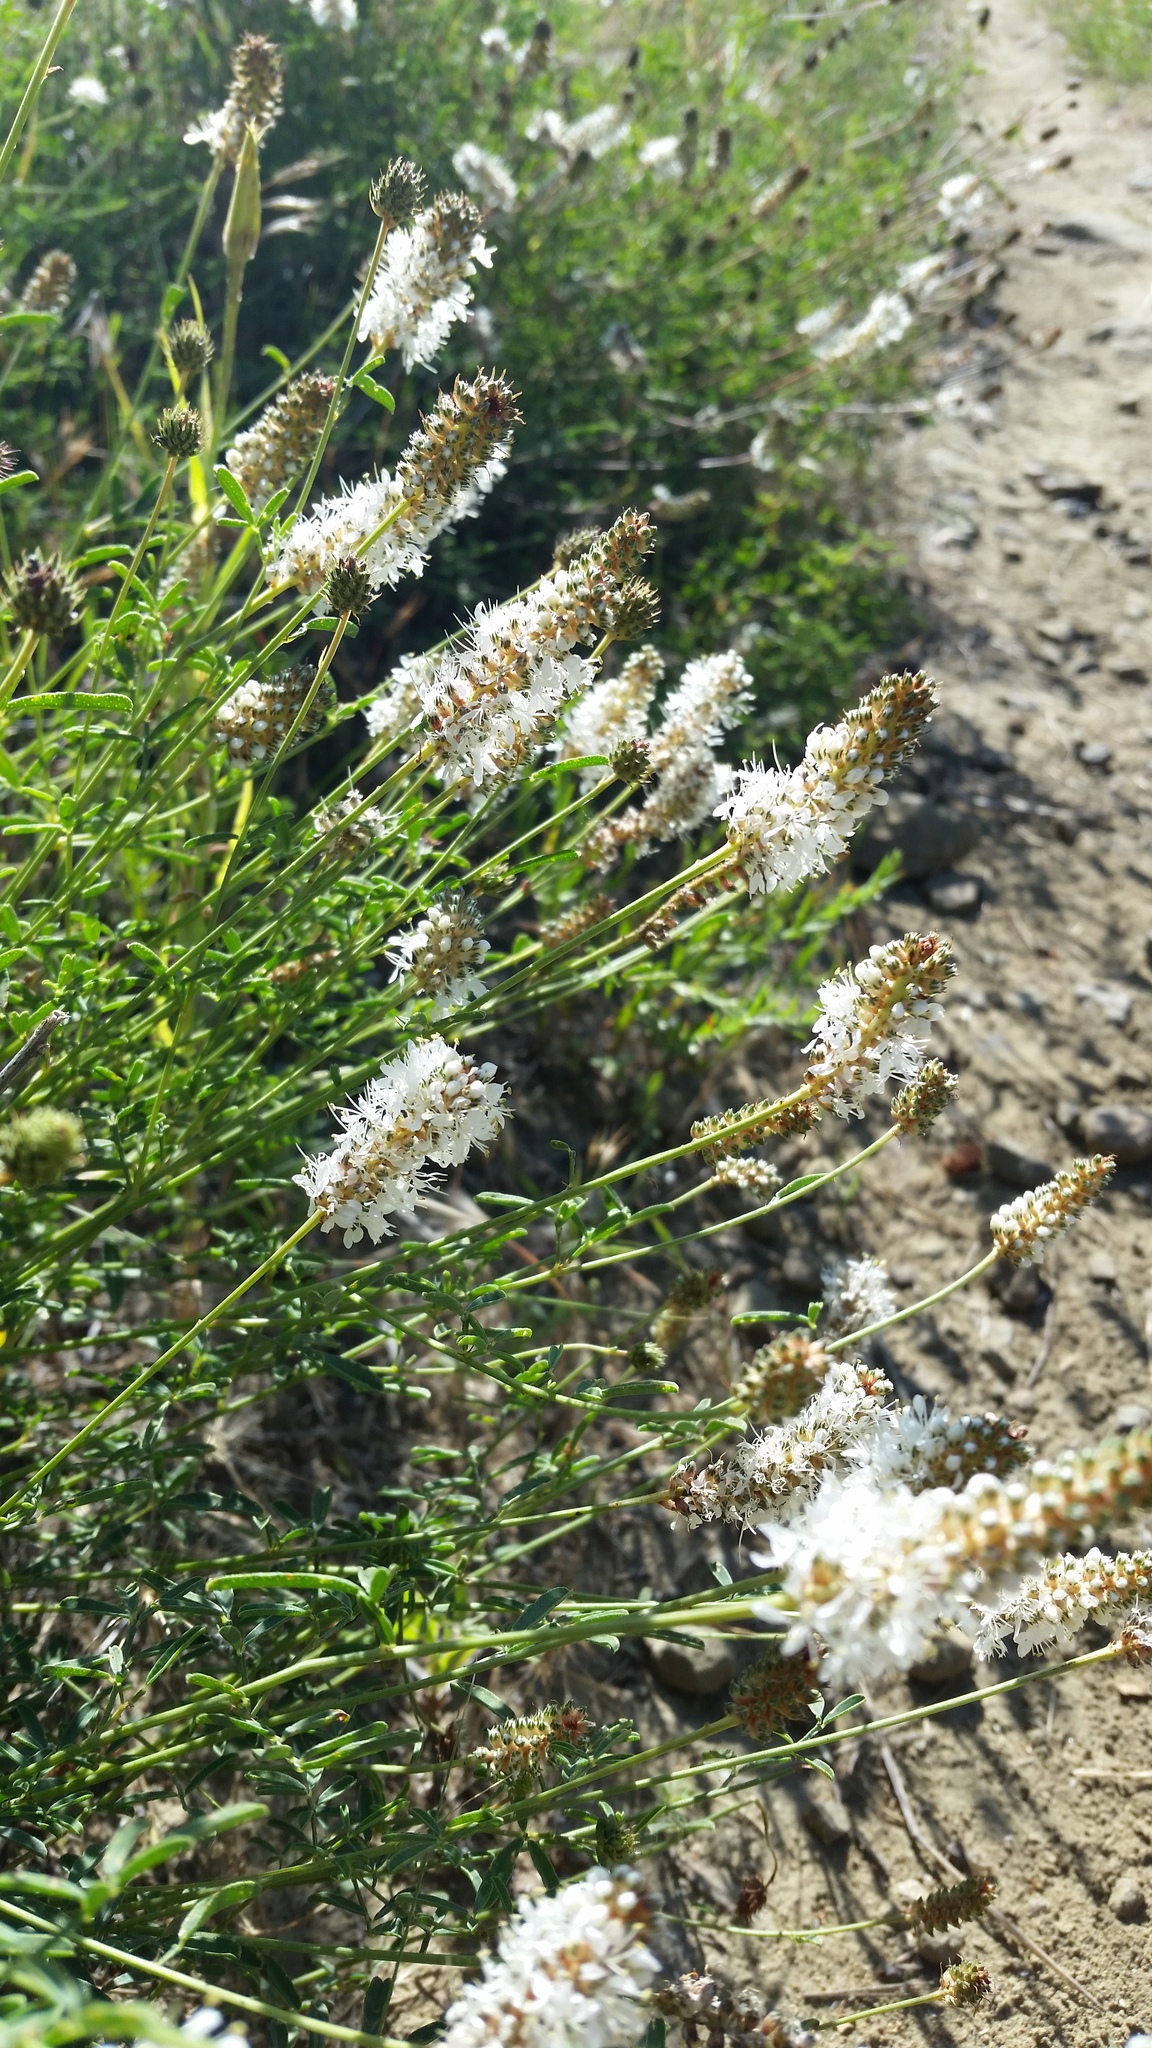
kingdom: Plantae
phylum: Tracheophyta
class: Magnoliopsida
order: Fabales
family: Fabaceae
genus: Dalea
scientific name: Dalea candida
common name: White prairie-clover
